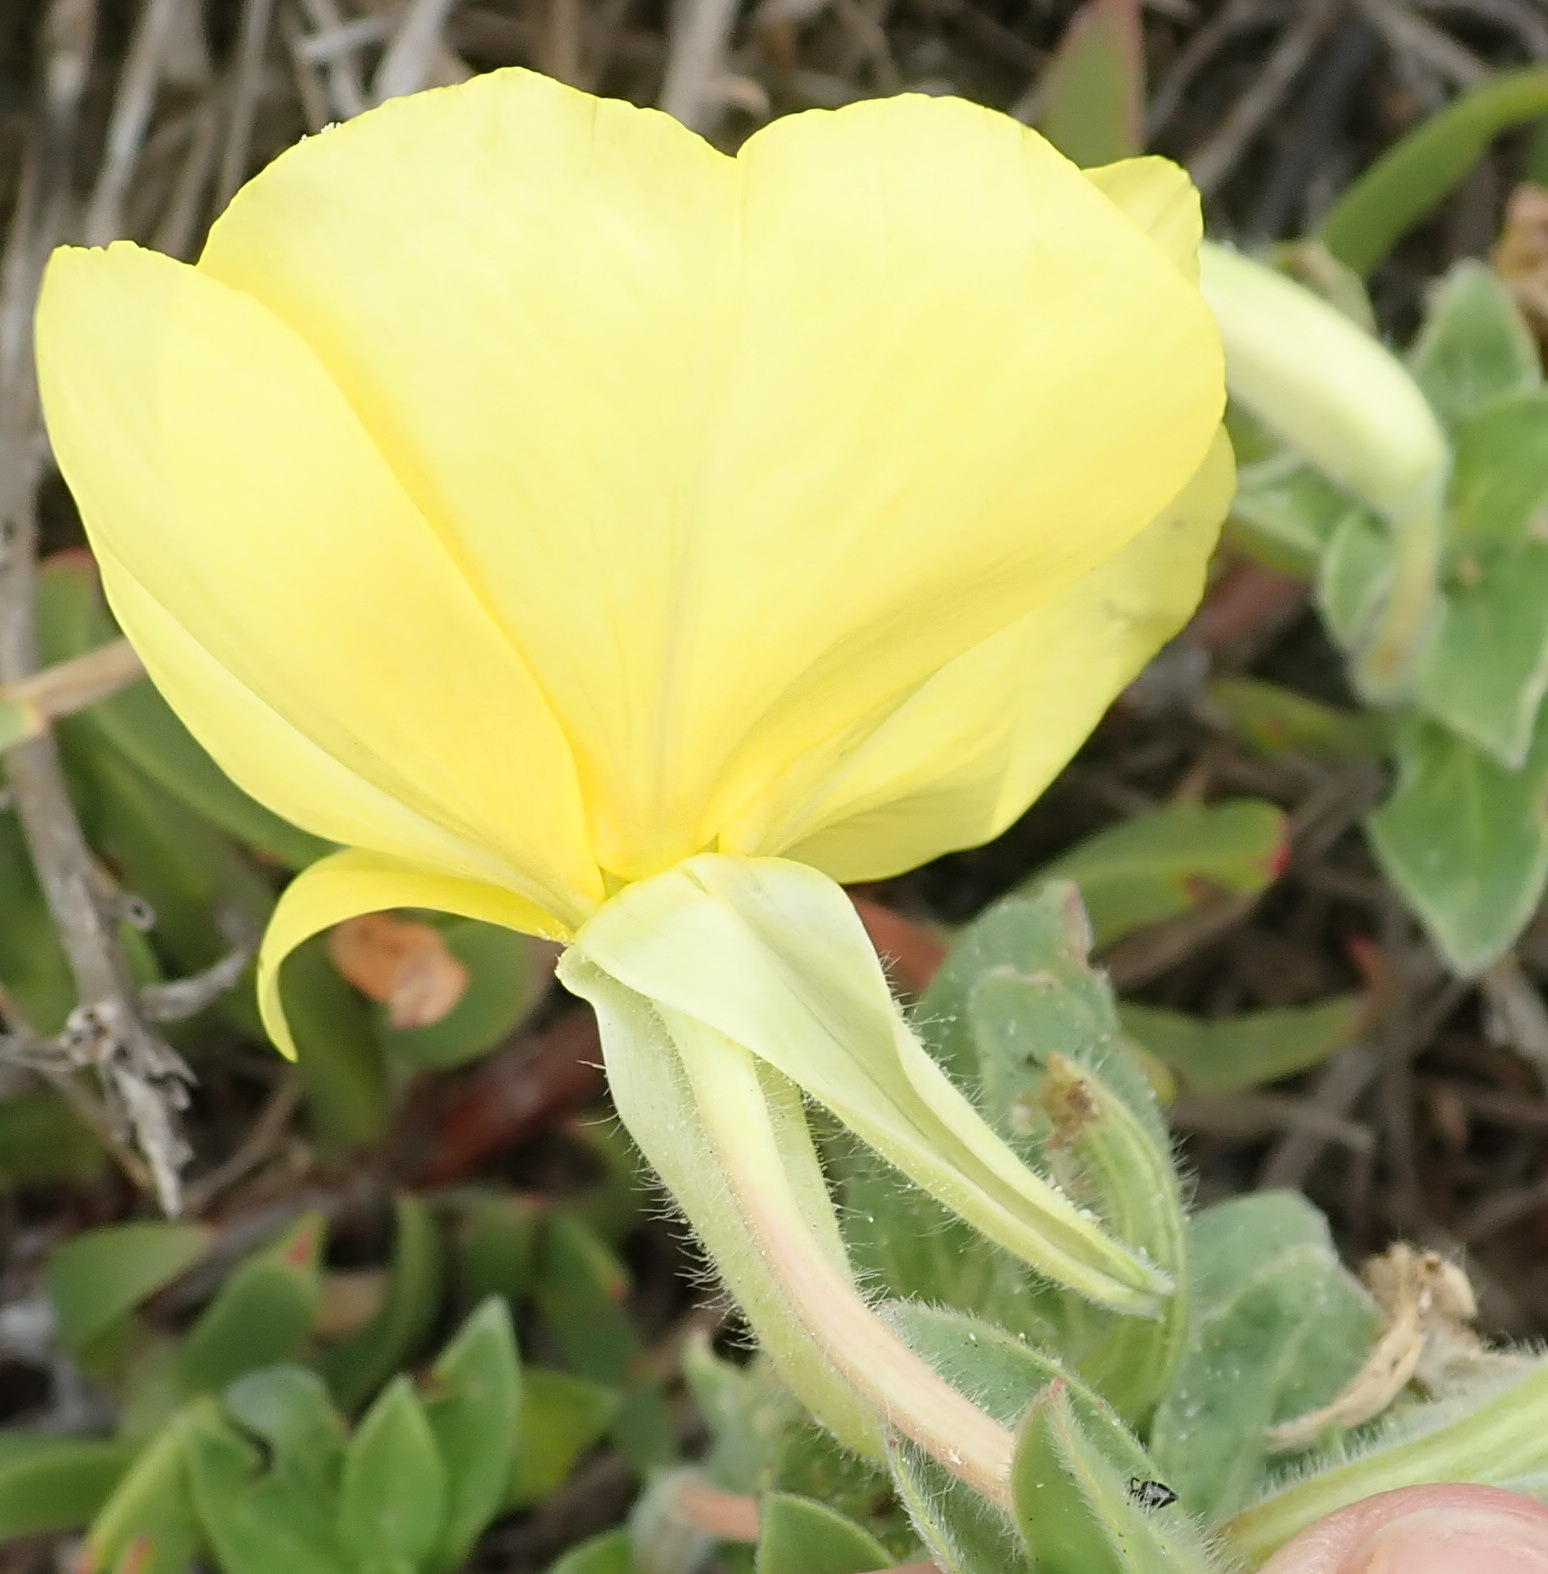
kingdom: Plantae
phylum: Tracheophyta
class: Magnoliopsida
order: Myrtales
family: Onagraceae
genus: Oenothera
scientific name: Oenothera drummondii
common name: Beach evening-primrose
